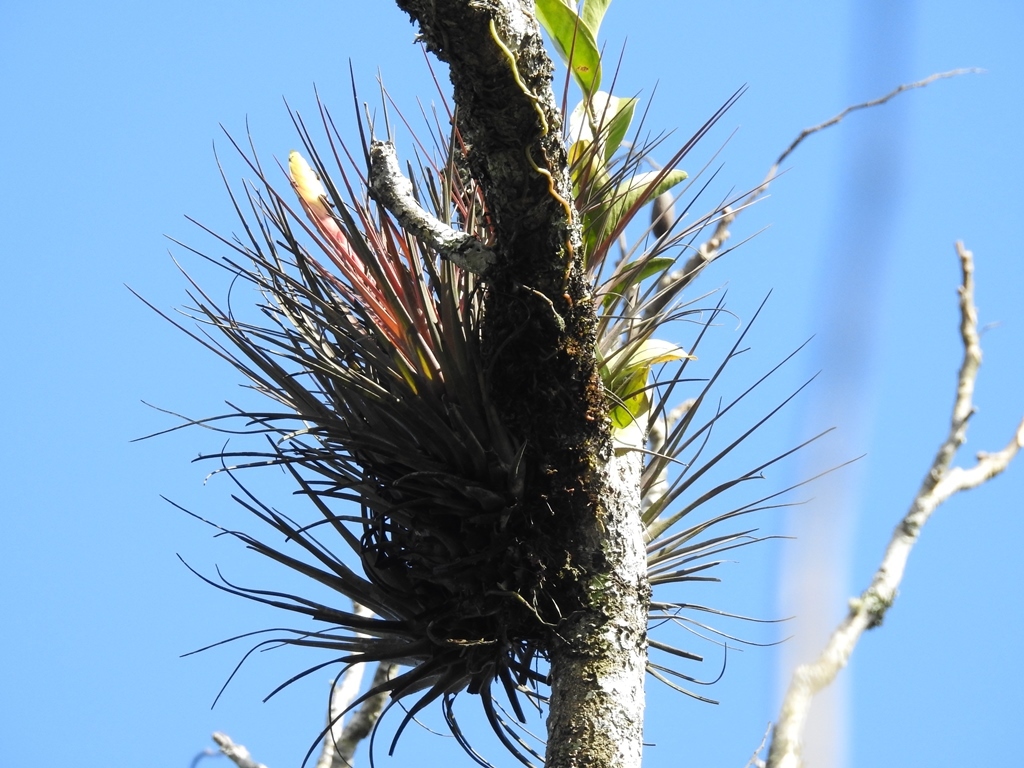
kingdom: Plantae
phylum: Tracheophyta
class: Liliopsida
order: Poales
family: Bromeliaceae
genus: Tillandsia
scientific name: Tillandsia zoquensis
